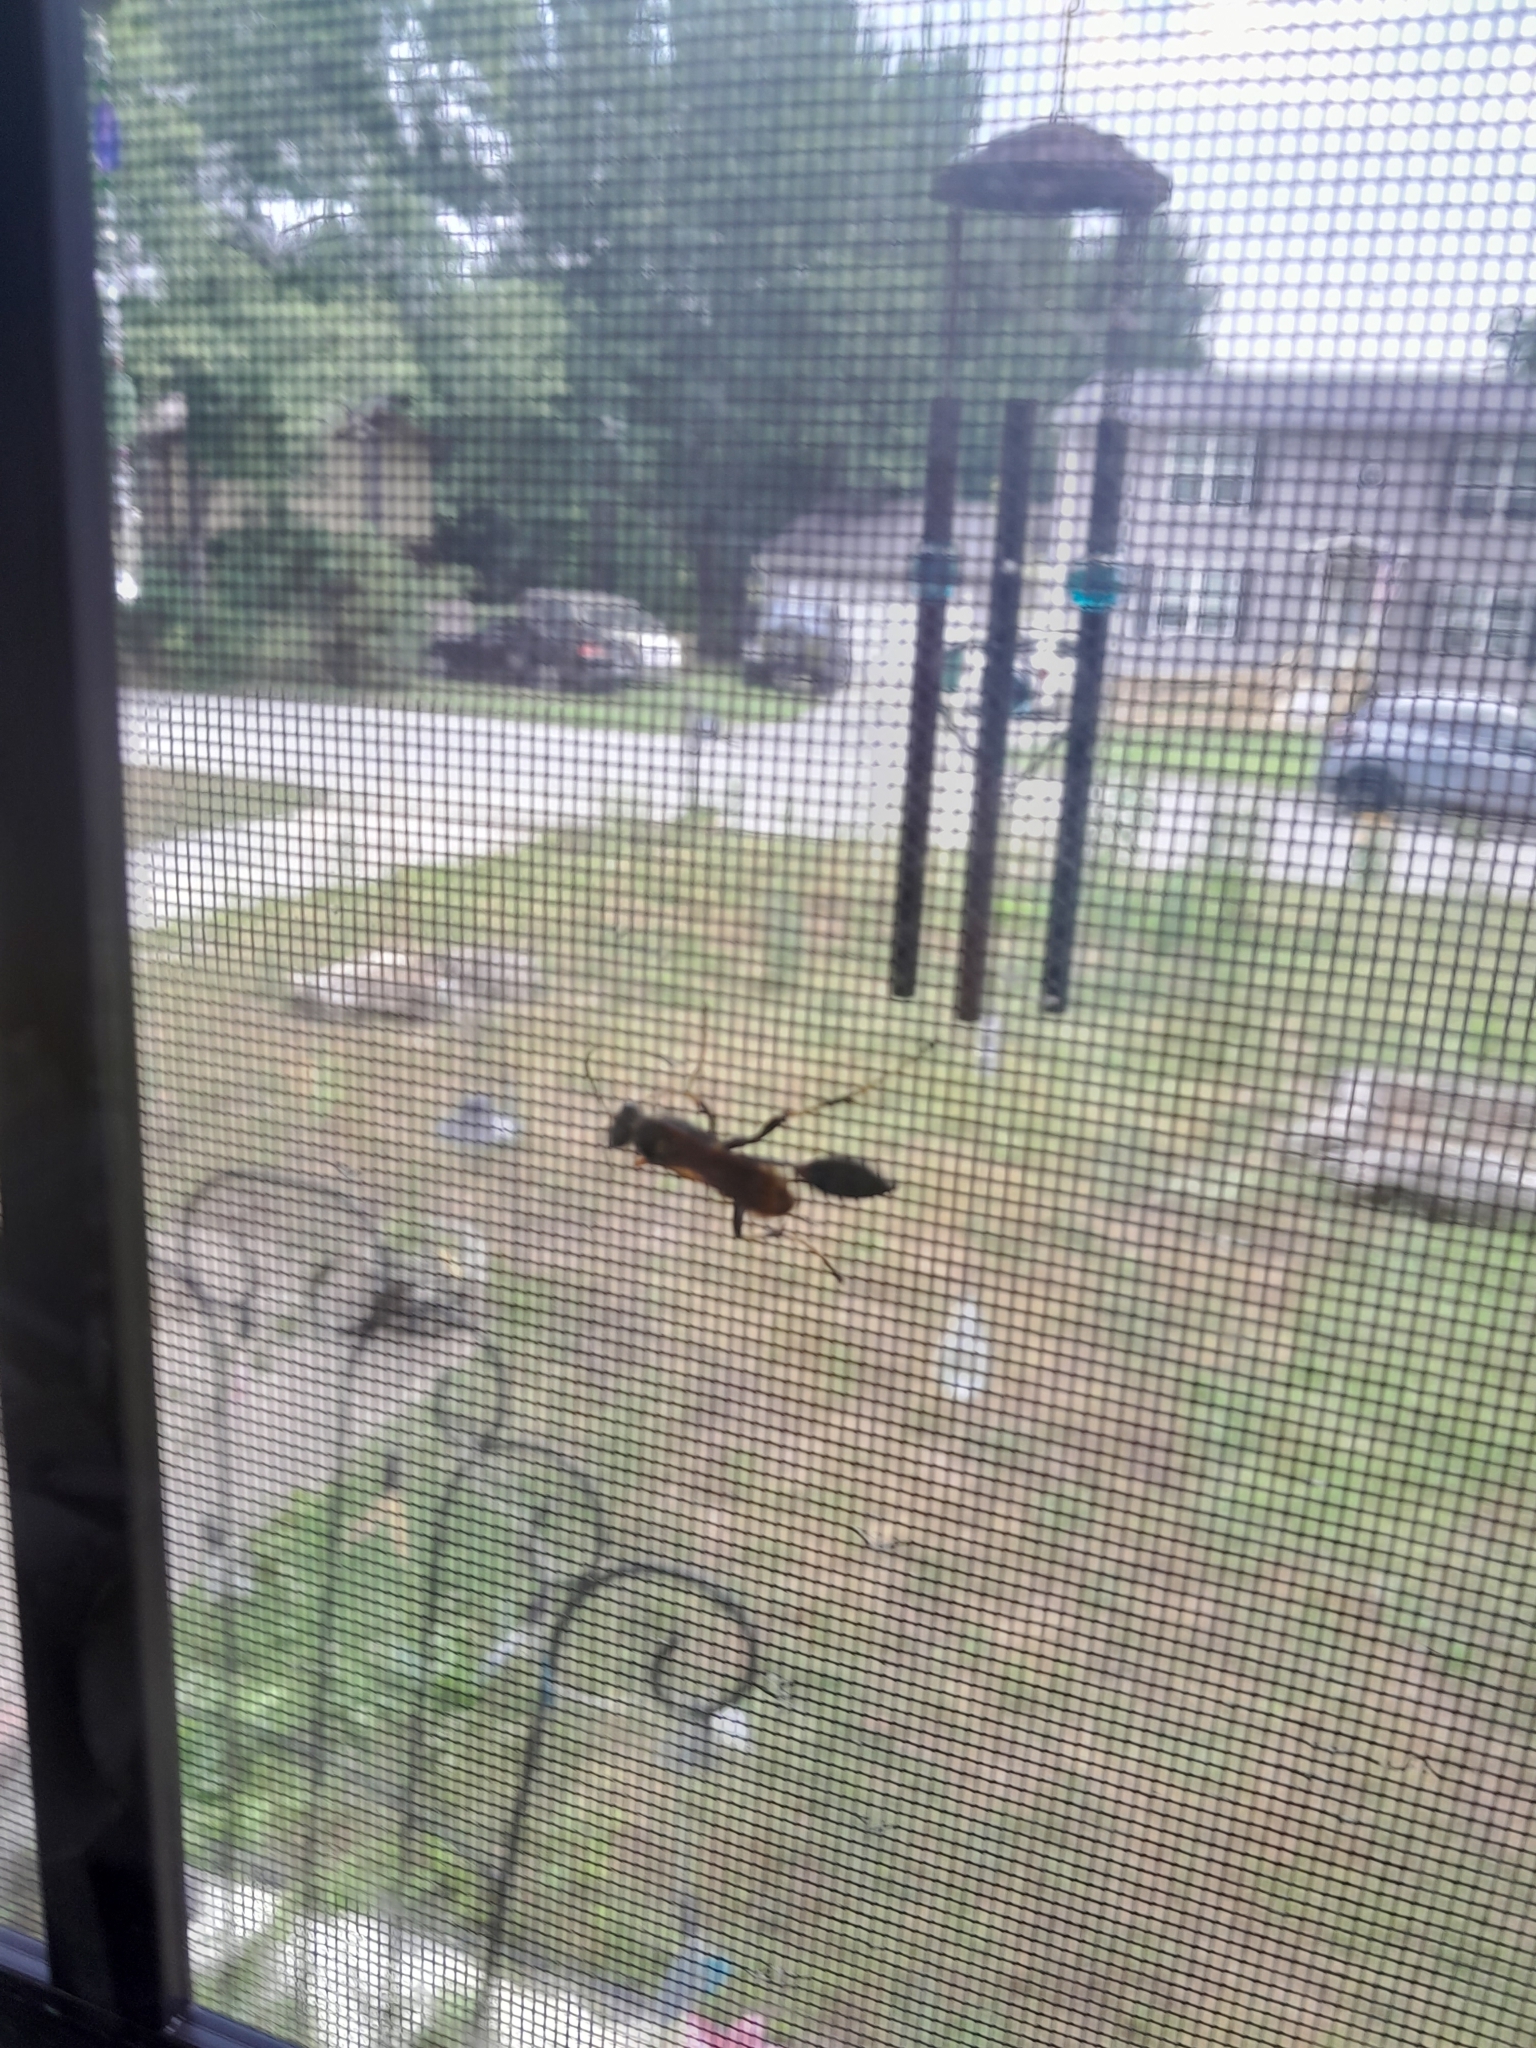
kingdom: Animalia
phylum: Arthropoda
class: Insecta
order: Hymenoptera
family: Sphecidae
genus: Sceliphron
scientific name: Sceliphron caementarium
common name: Mud dauber
